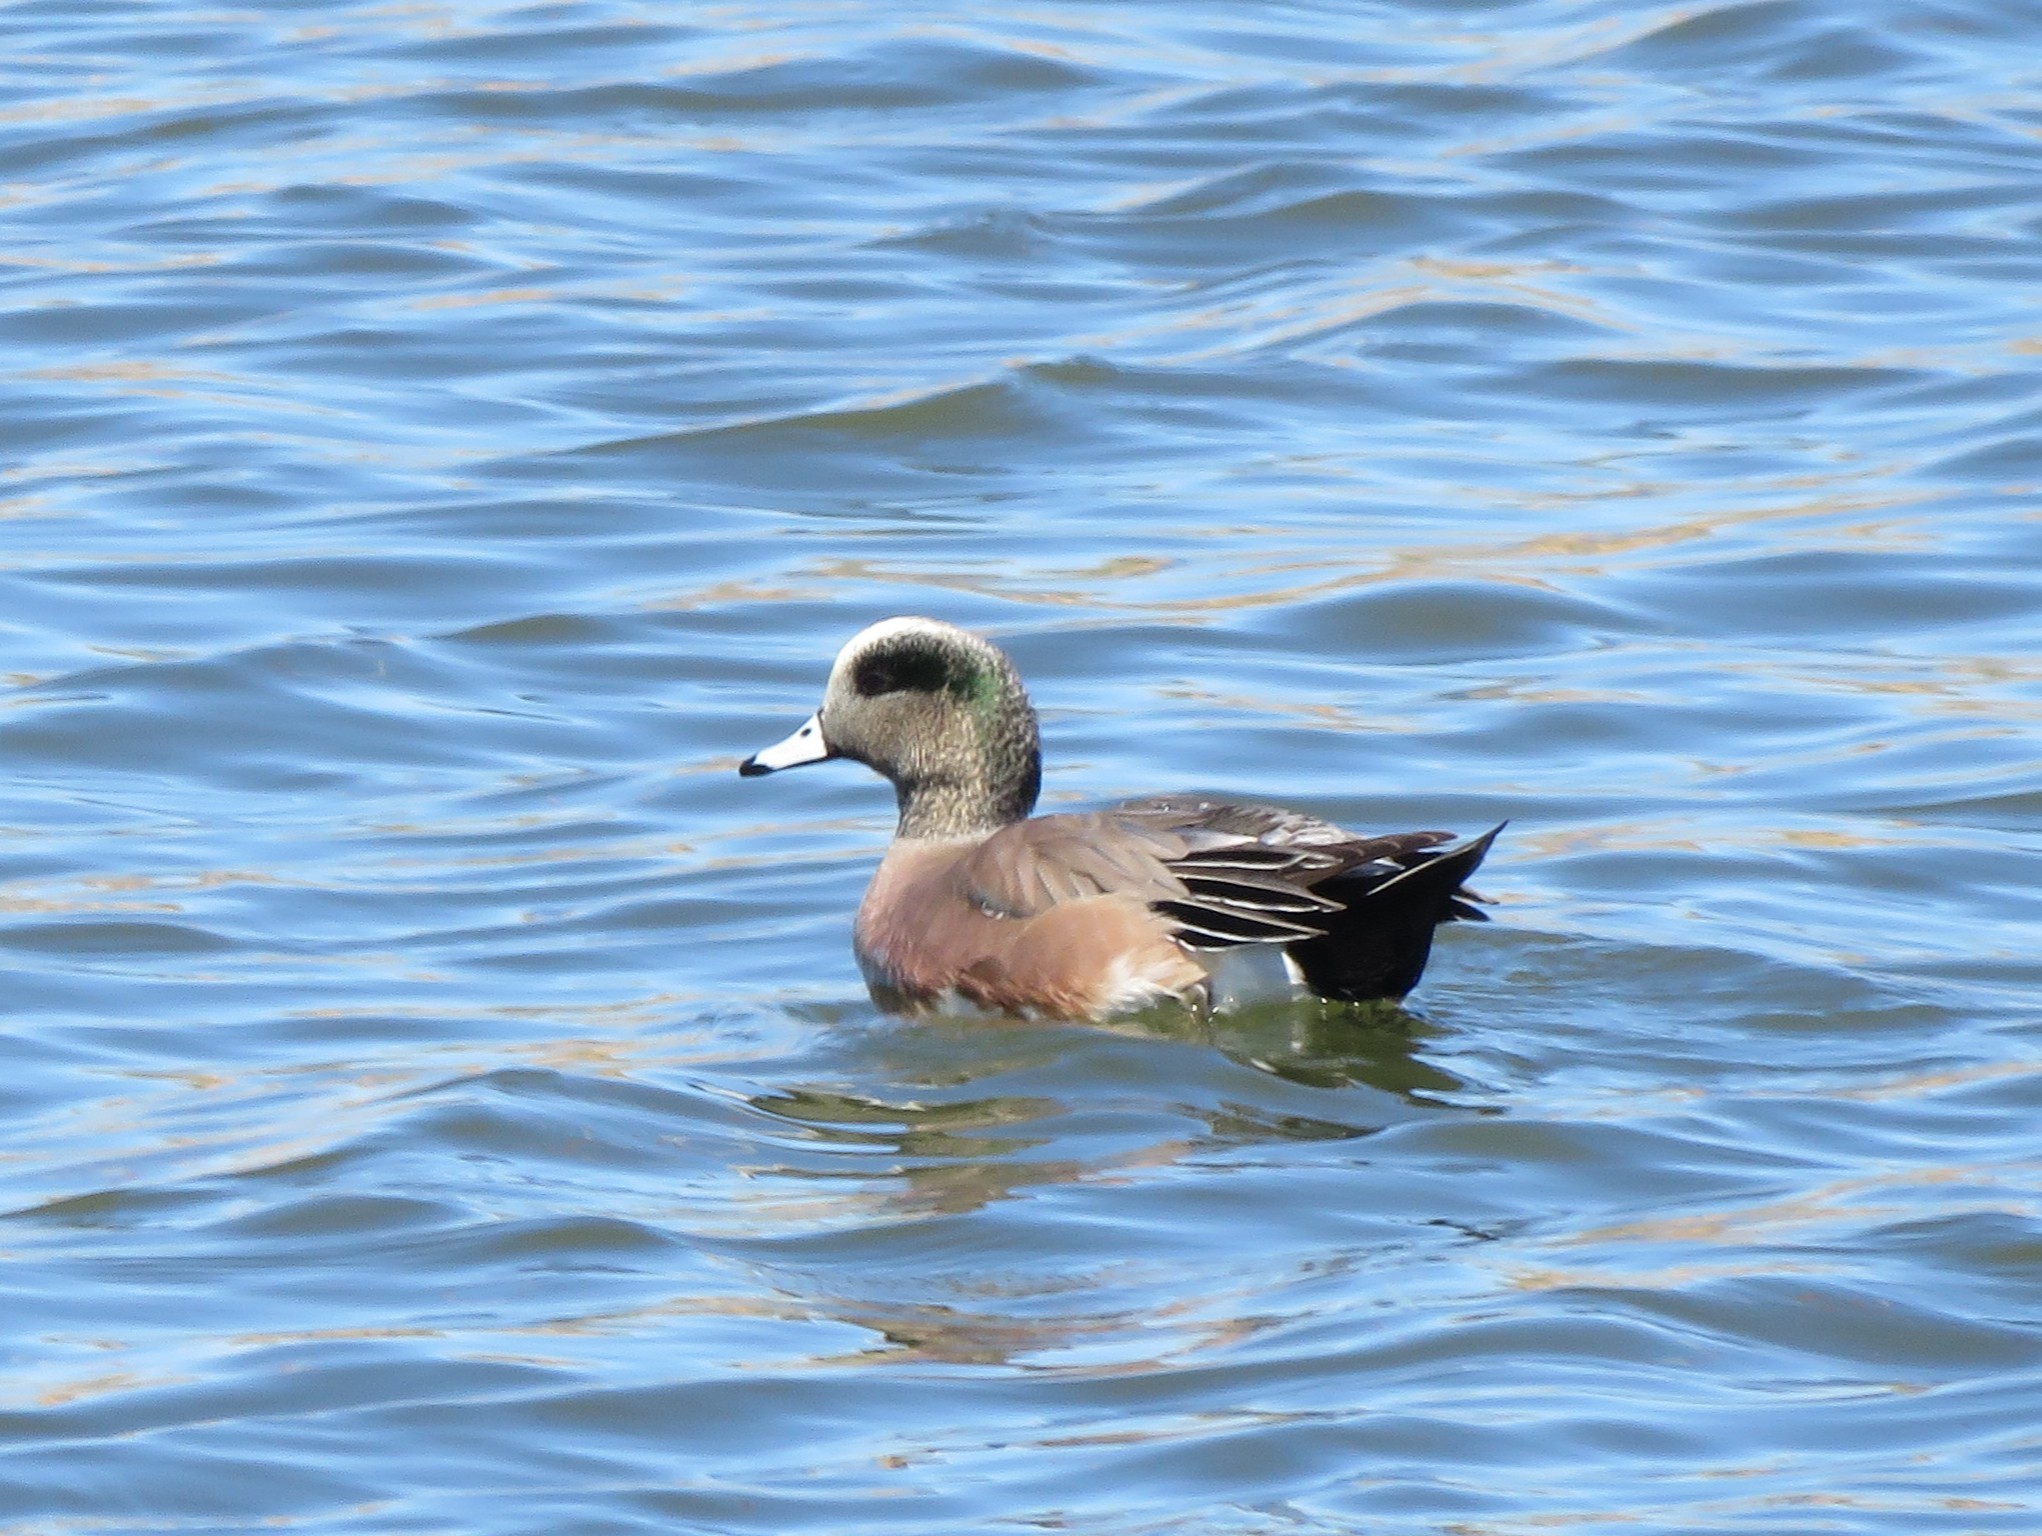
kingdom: Animalia
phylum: Chordata
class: Aves
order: Anseriformes
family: Anatidae
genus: Mareca
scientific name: Mareca americana
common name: American wigeon
